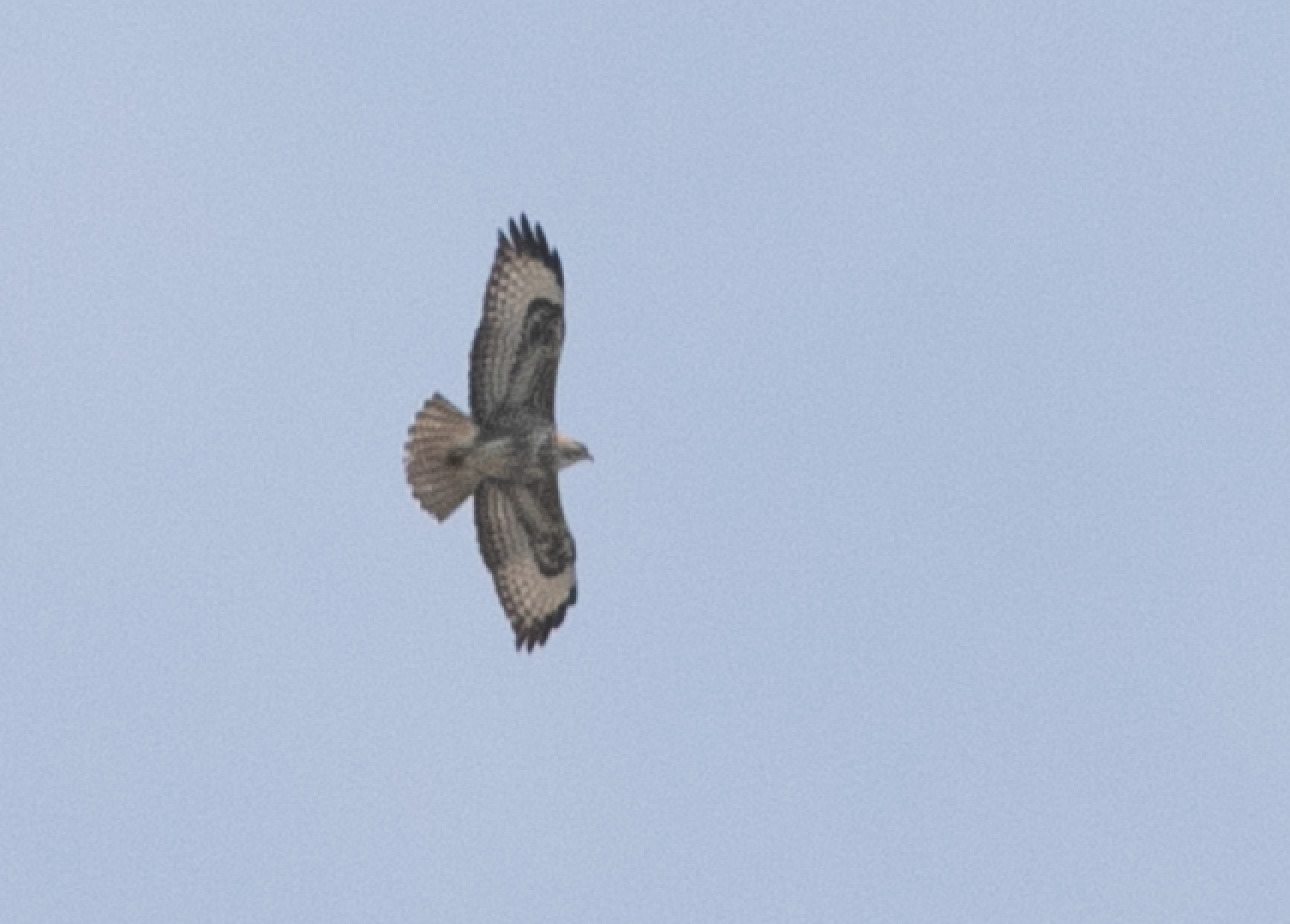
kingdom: Animalia
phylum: Chordata
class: Aves
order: Accipitriformes
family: Accipitridae
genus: Buteo
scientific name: Buteo buteo
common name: Common buzzard
